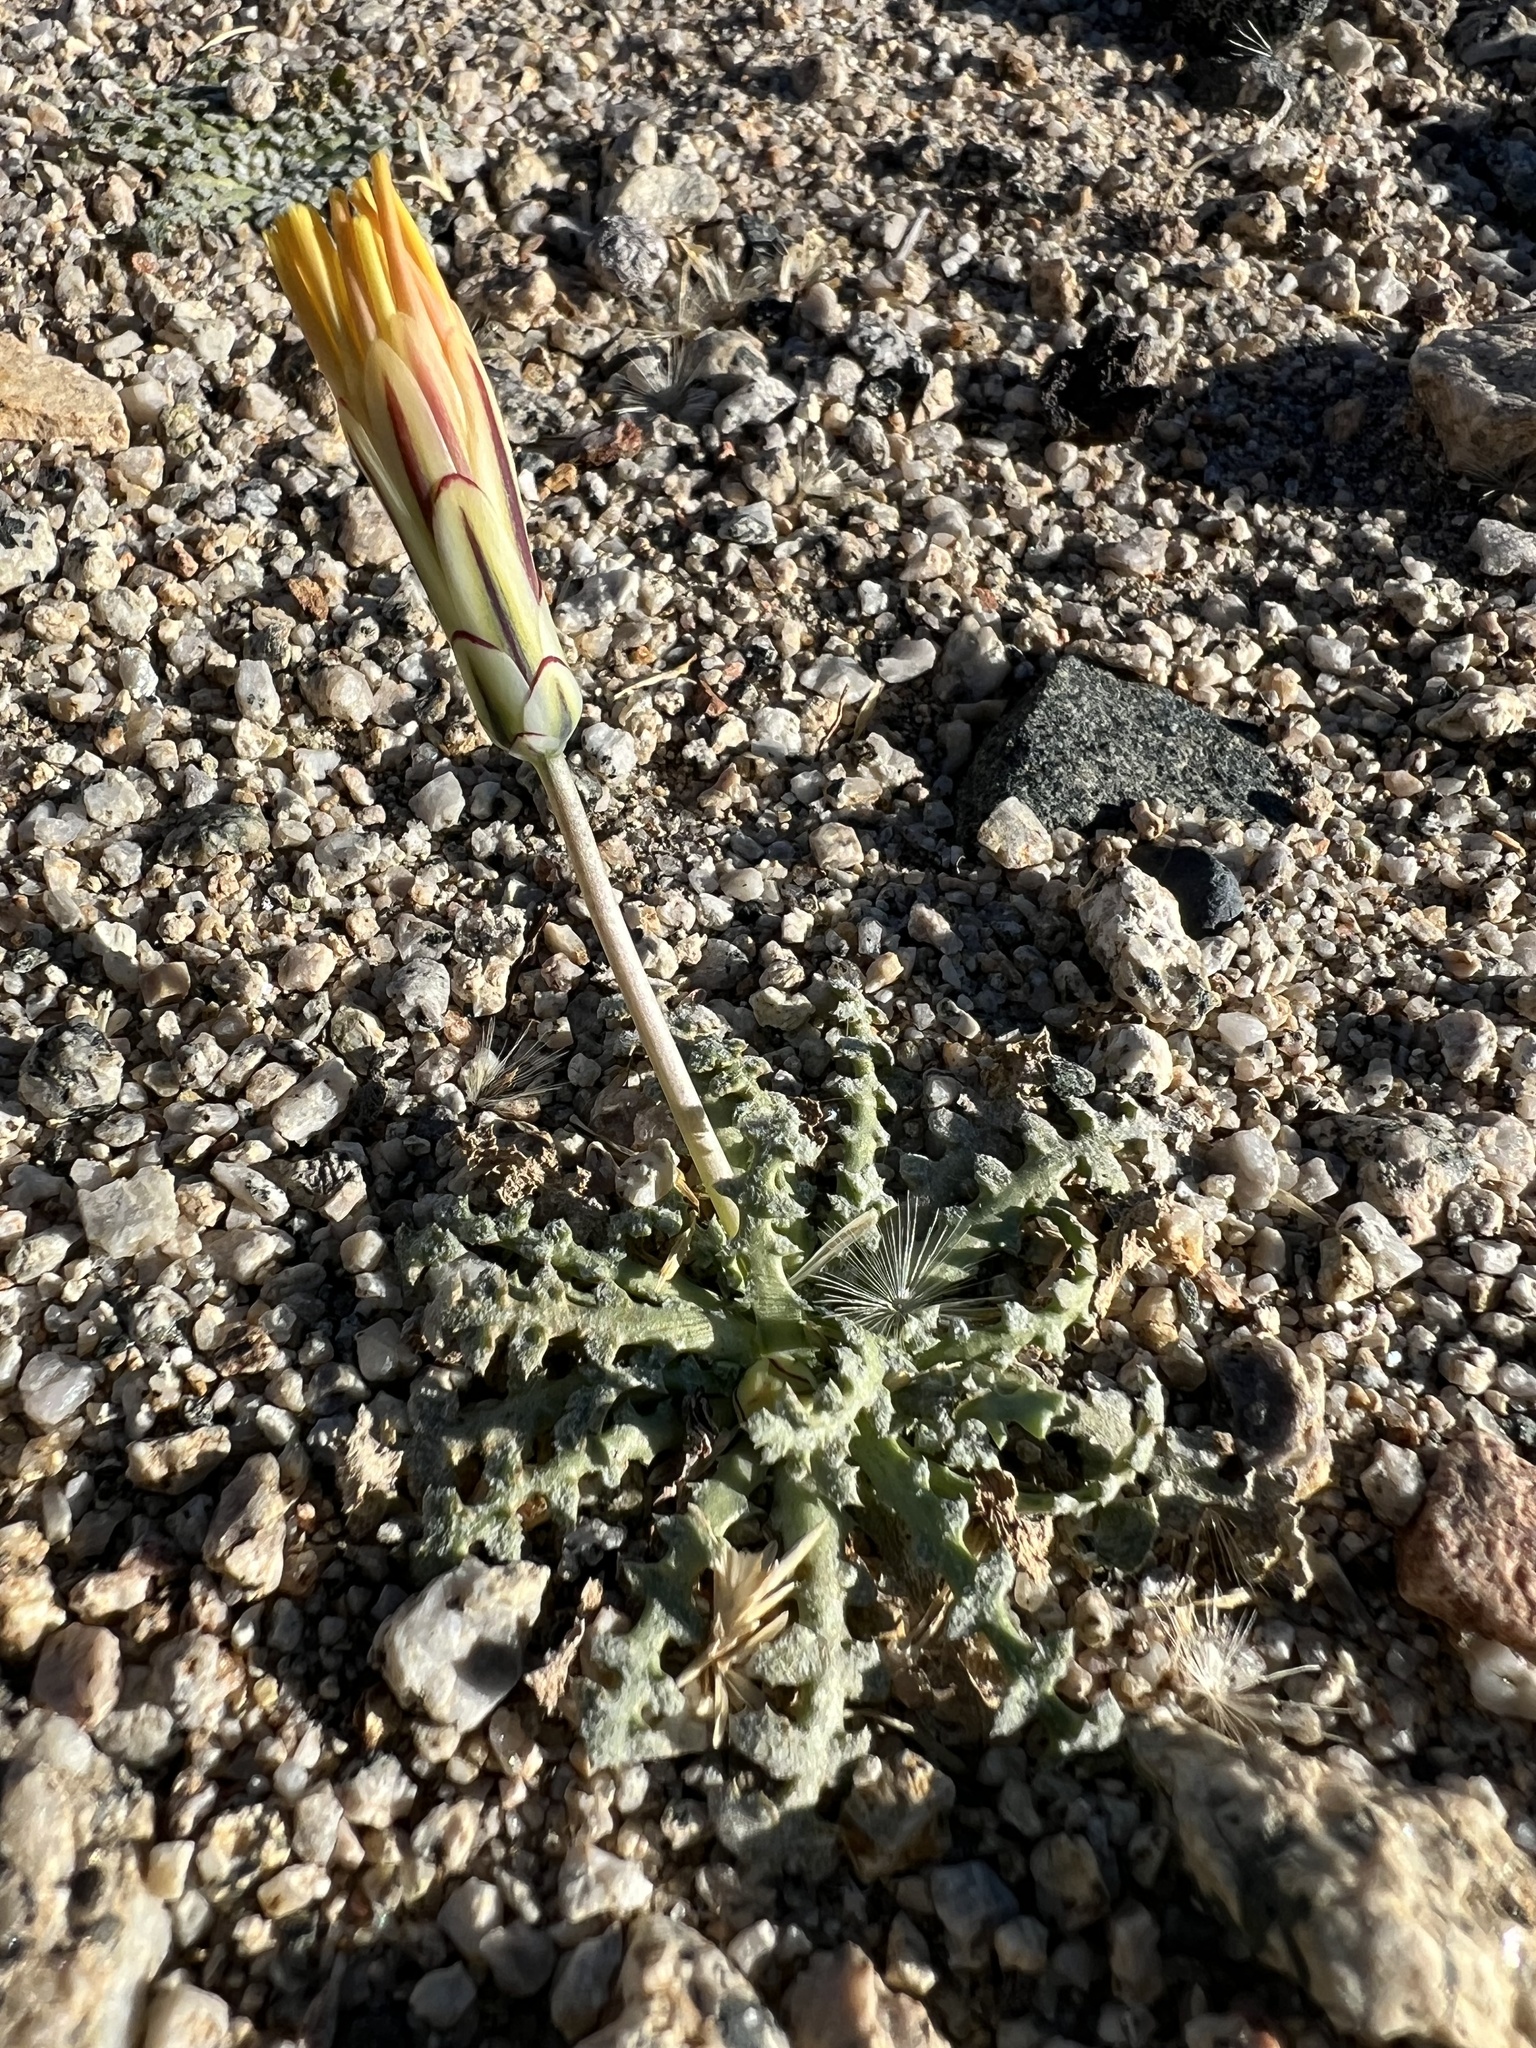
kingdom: Plantae
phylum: Tracheophyta
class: Magnoliopsida
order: Asterales
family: Asteraceae
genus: Anisocoma
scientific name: Anisocoma acaulis
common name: Scalebud
